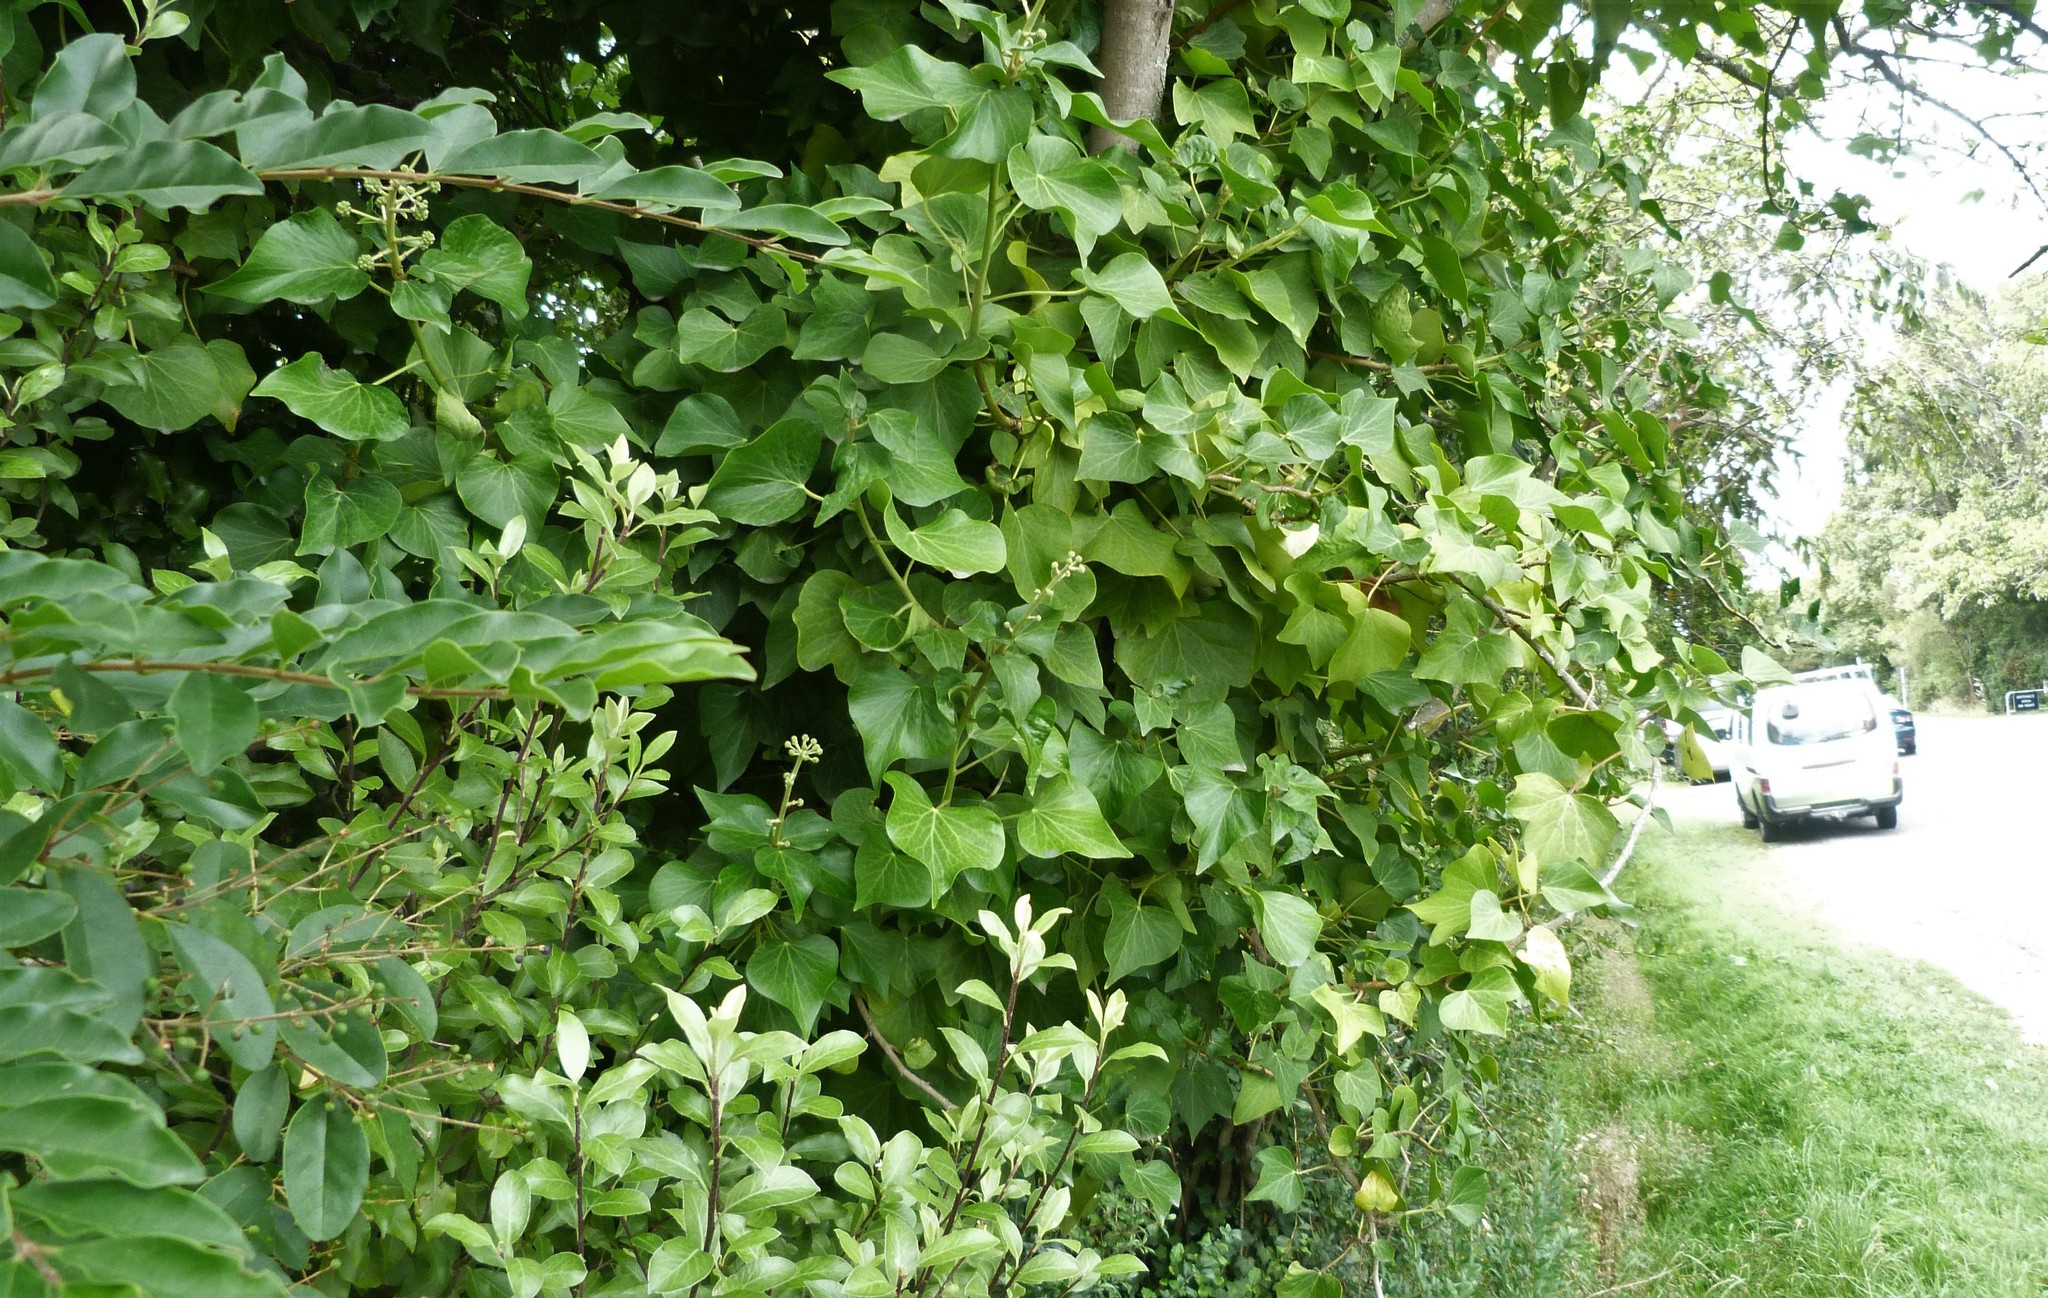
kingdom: Plantae
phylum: Tracheophyta
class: Magnoliopsida
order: Apiales
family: Araliaceae
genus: Hedera
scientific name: Hedera helix
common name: Ivy
